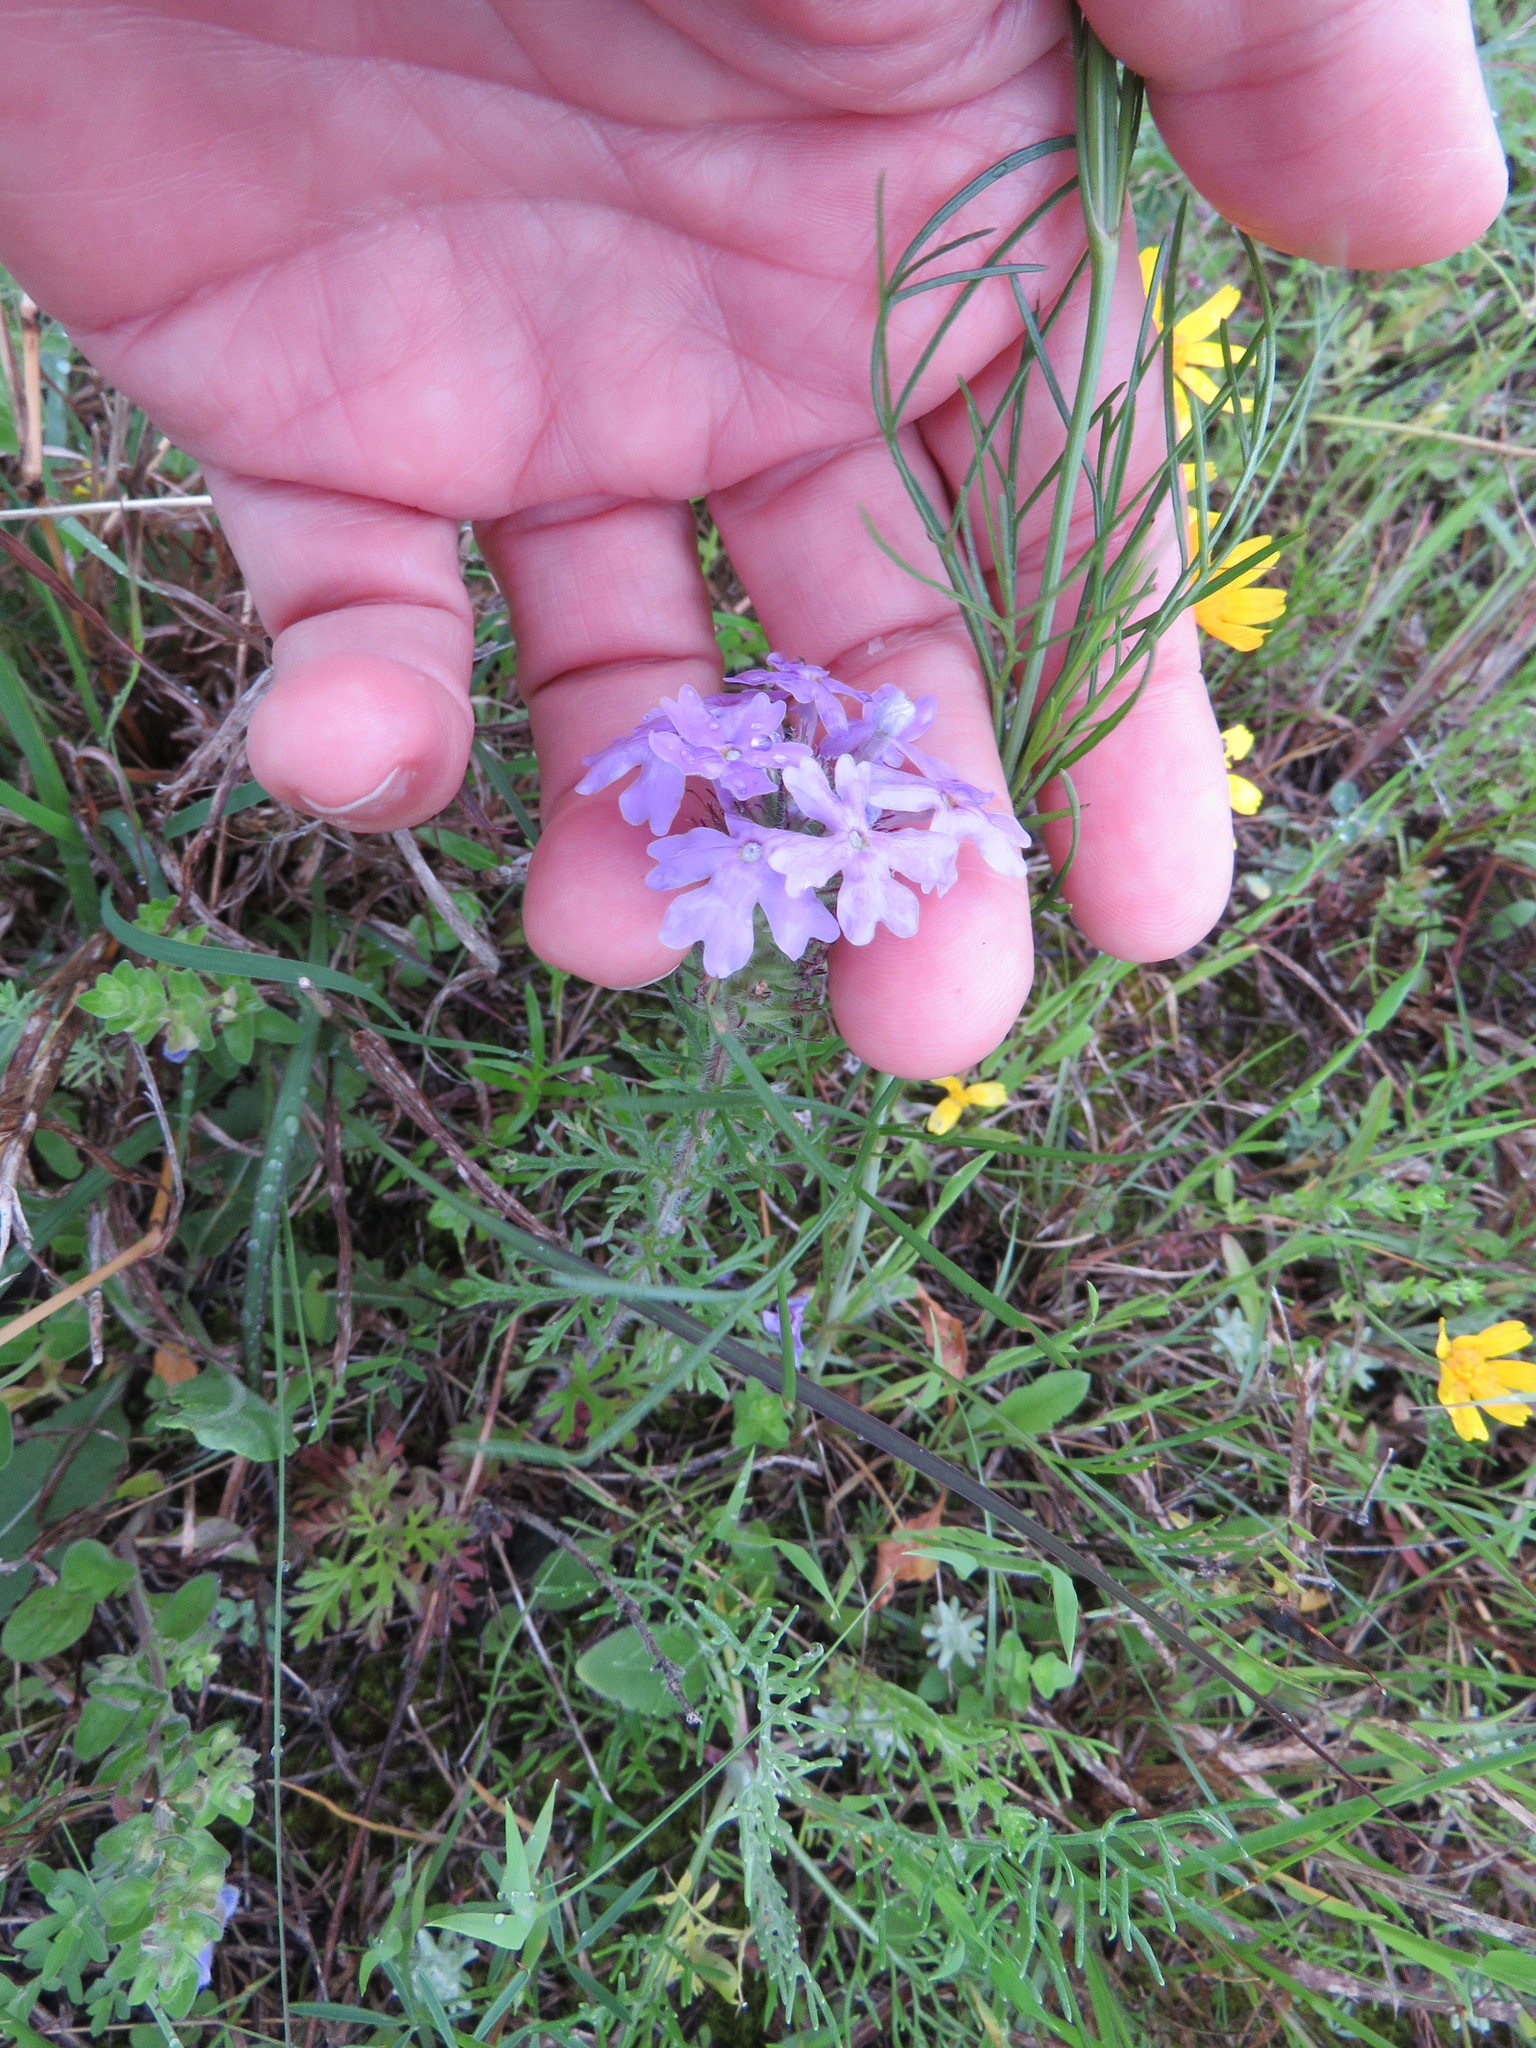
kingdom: Plantae
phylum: Tracheophyta
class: Magnoliopsida
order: Lamiales
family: Verbenaceae
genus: Verbena
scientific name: Verbena bipinnatifida
